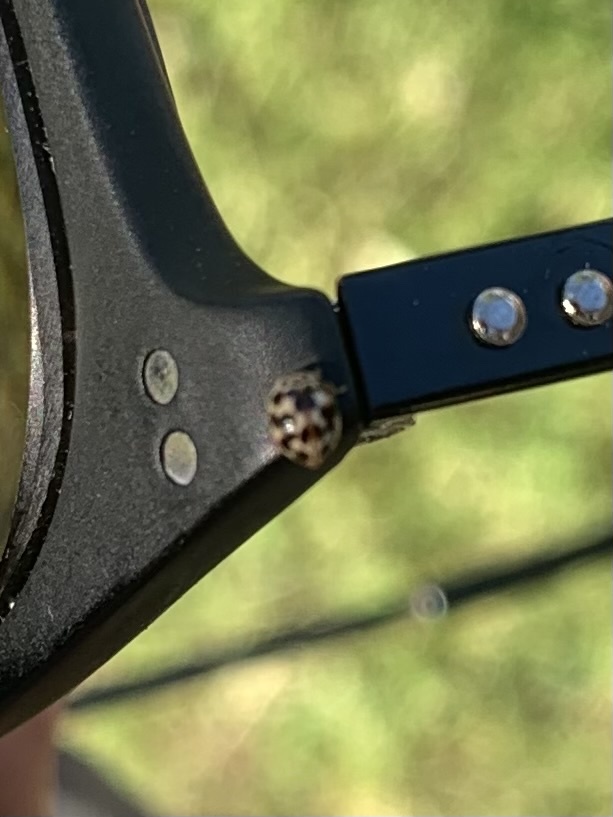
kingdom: Animalia
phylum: Arthropoda
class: Insecta
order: Coleoptera
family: Coccinellidae
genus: Psyllobora
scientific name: Psyllobora vigintimaculata
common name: Ladybird beetle
